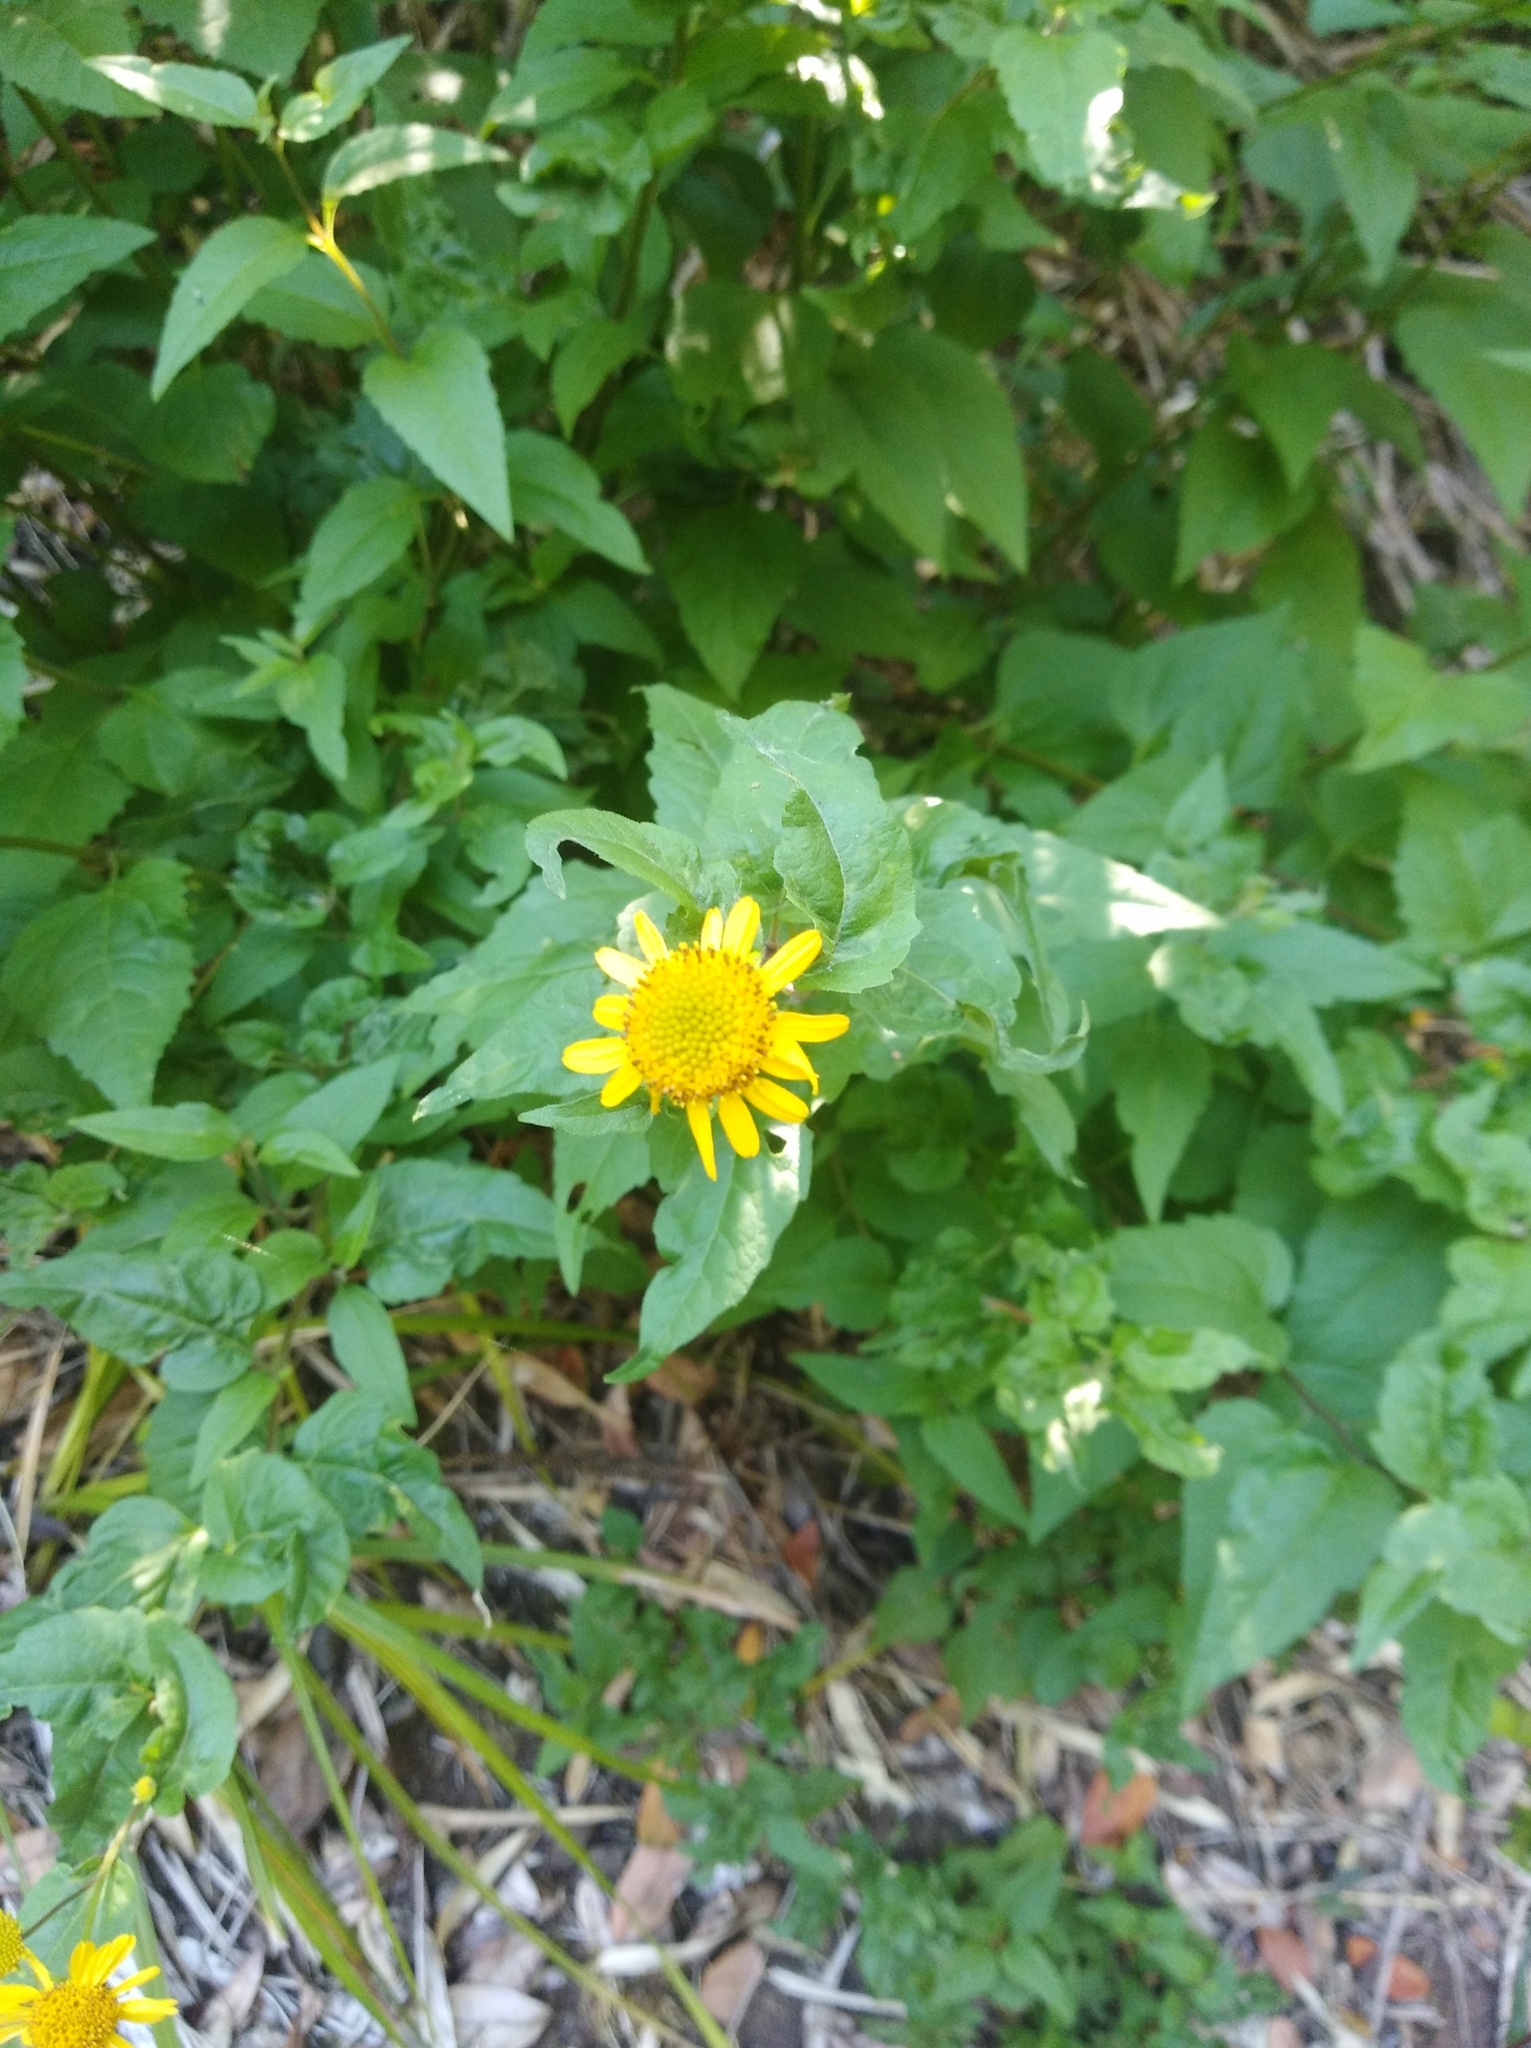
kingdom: Plantae
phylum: Tracheophyta
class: Magnoliopsida
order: Asterales
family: Asteraceae
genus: Leptocarpha
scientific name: Leptocarpha rivularis
